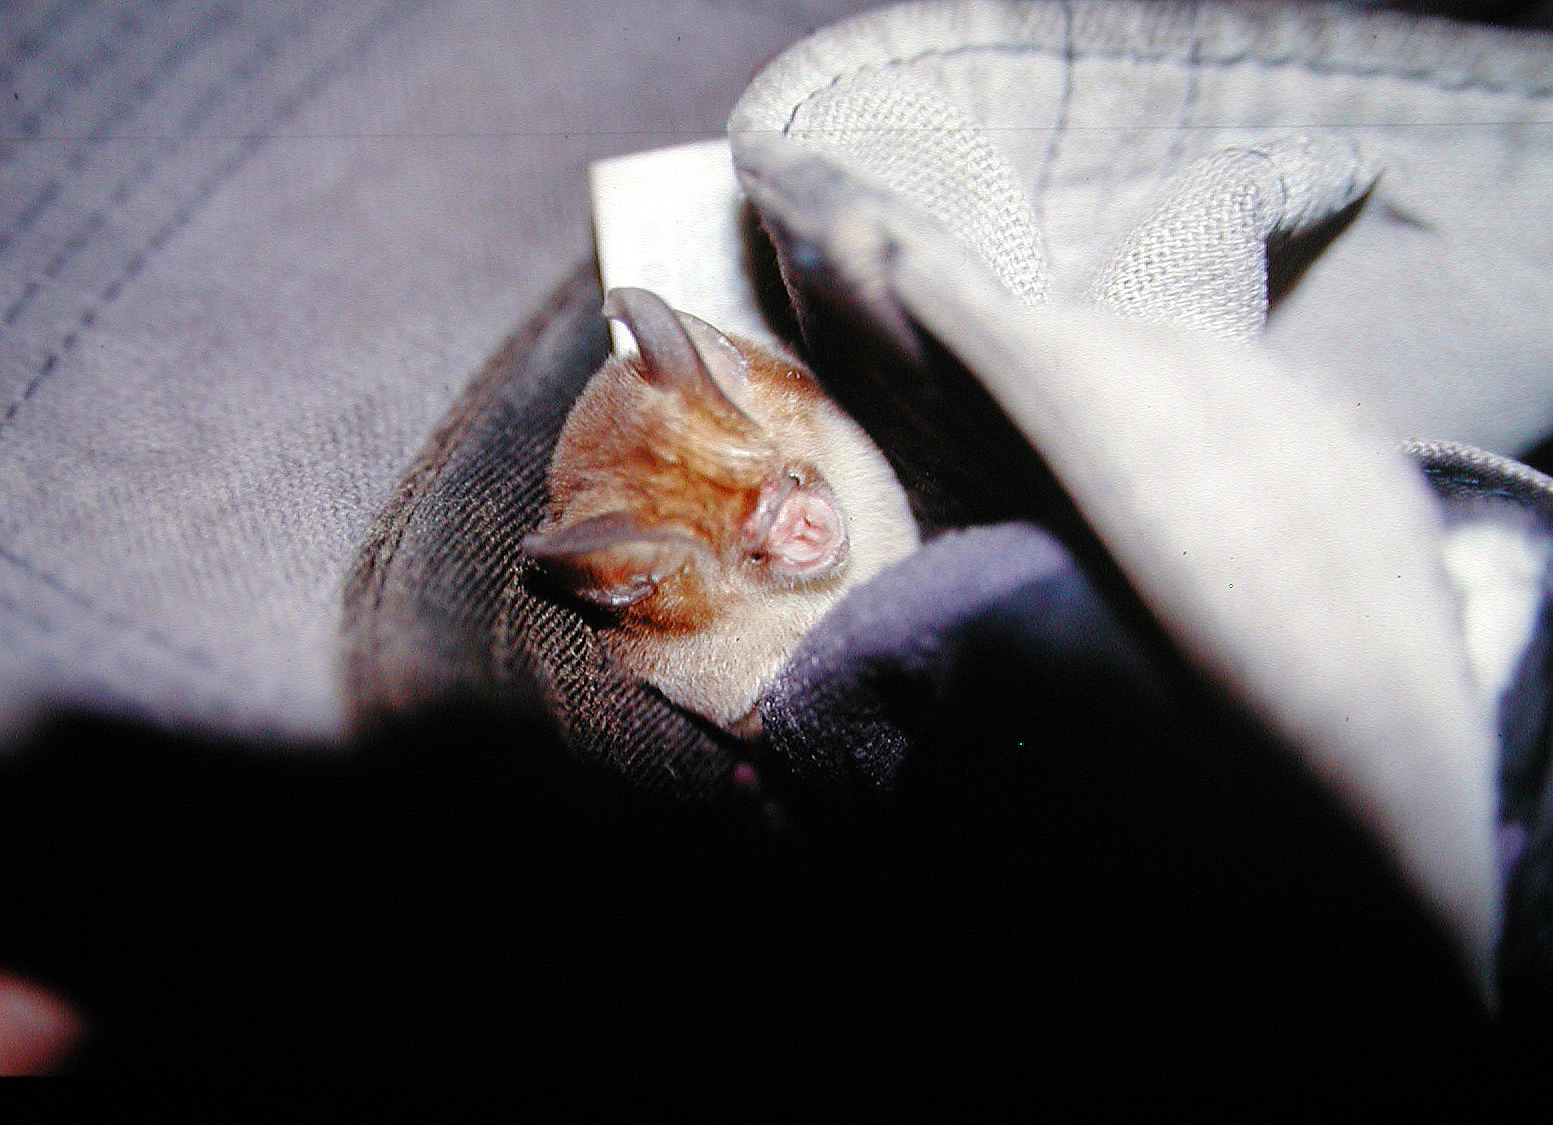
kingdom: Animalia
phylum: Chordata
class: Mammalia
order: Chiroptera
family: Hipposideridae
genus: Hipposideros
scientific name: Hipposideros cineraceus
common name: Ashy leaf-nosed bat
